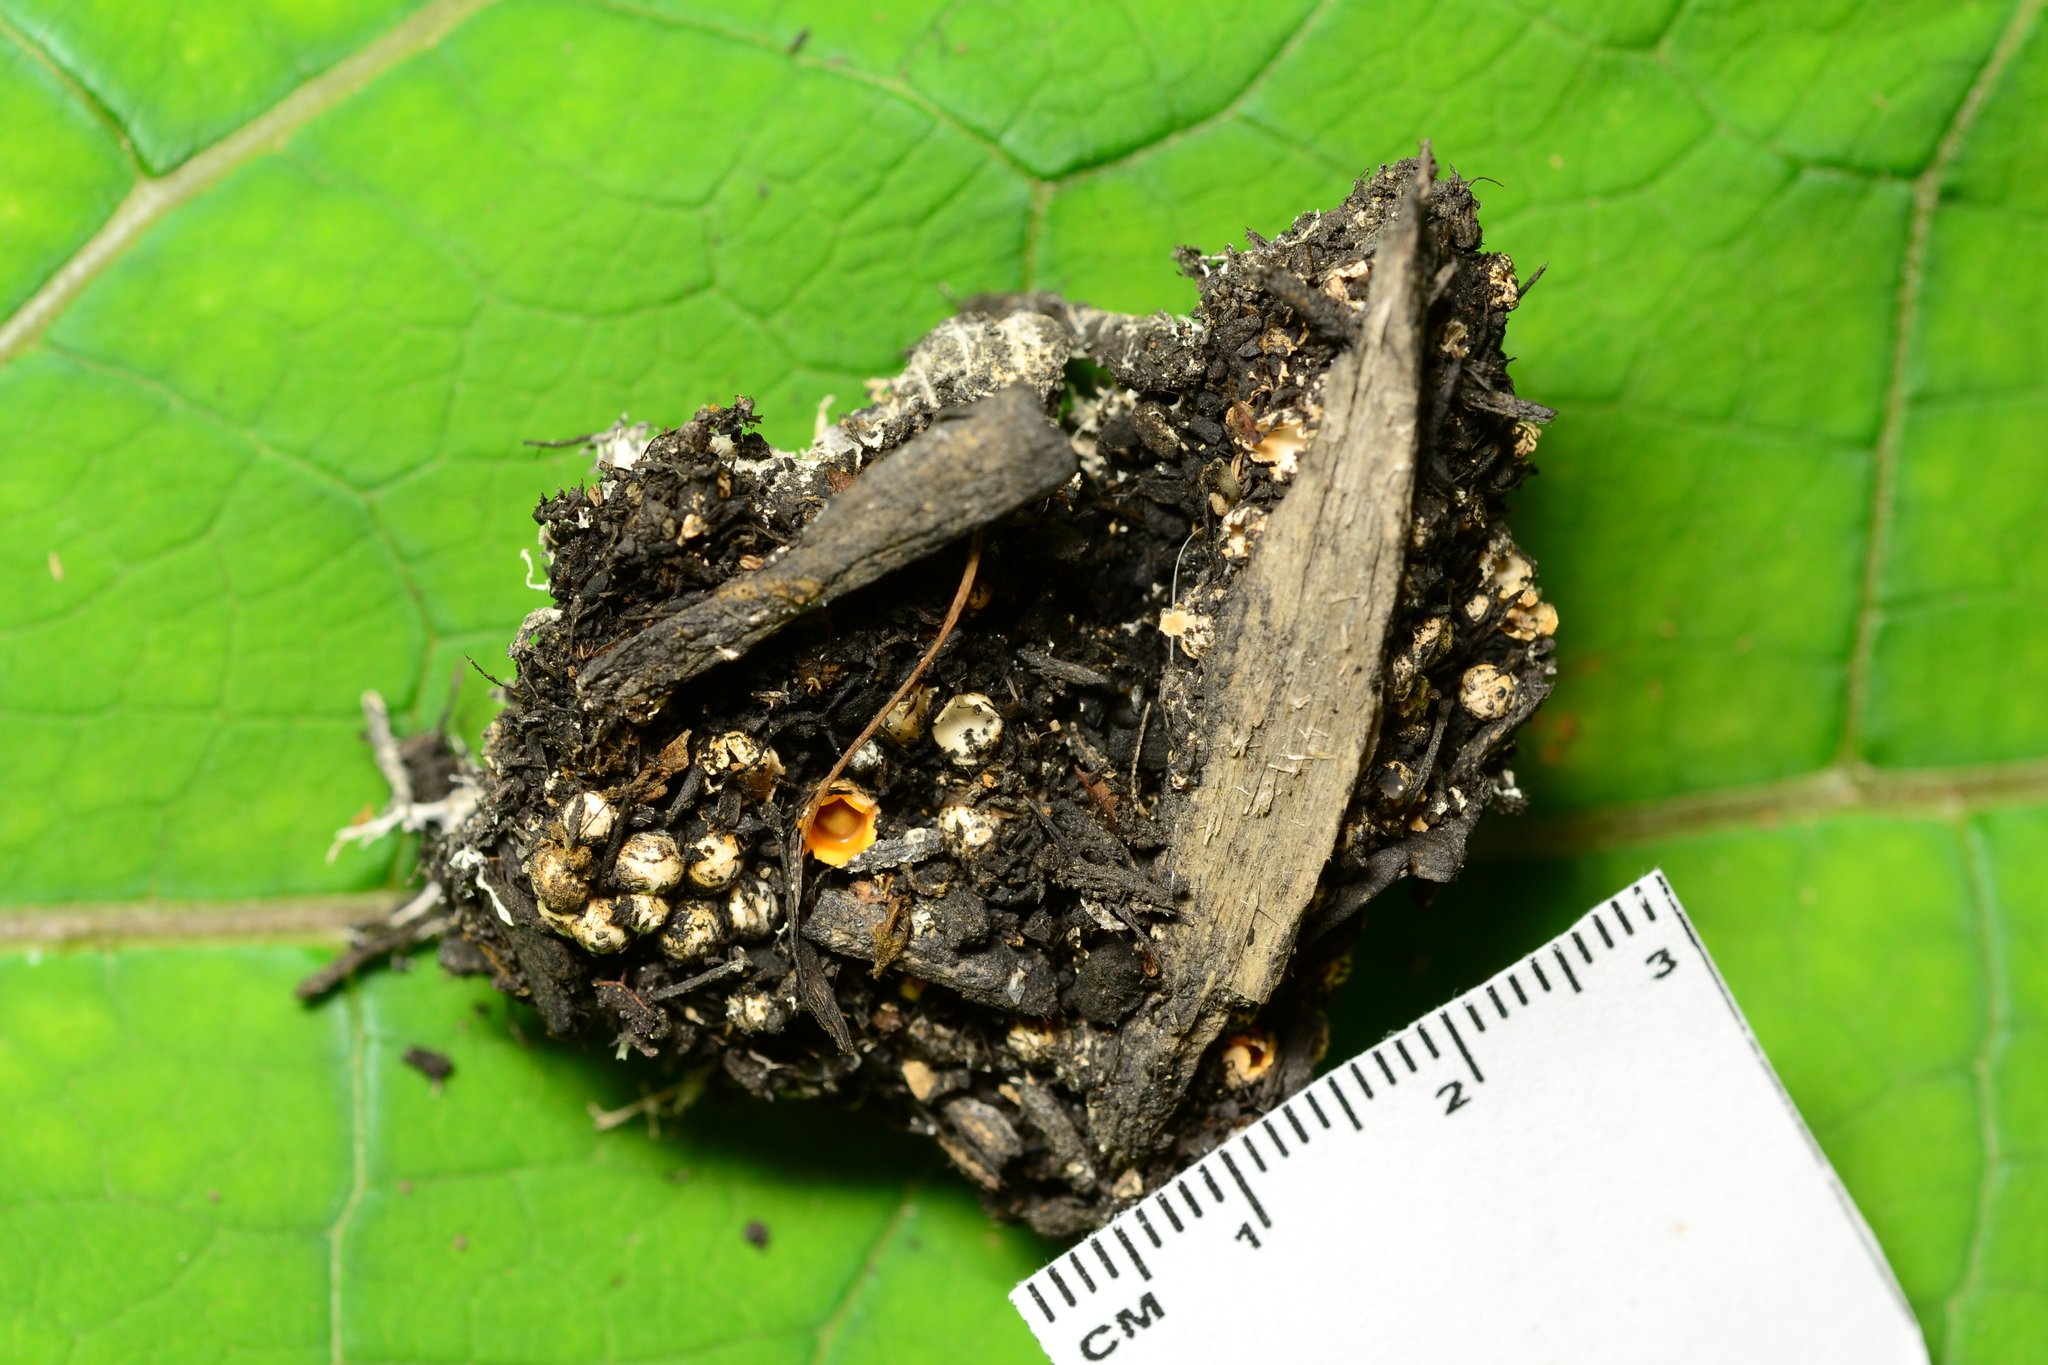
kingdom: Fungi
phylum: Basidiomycota
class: Agaricomycetes
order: Geastrales
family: Geastraceae
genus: Sphaerobolus
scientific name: Sphaerobolus stellatus
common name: Cannon fungus
